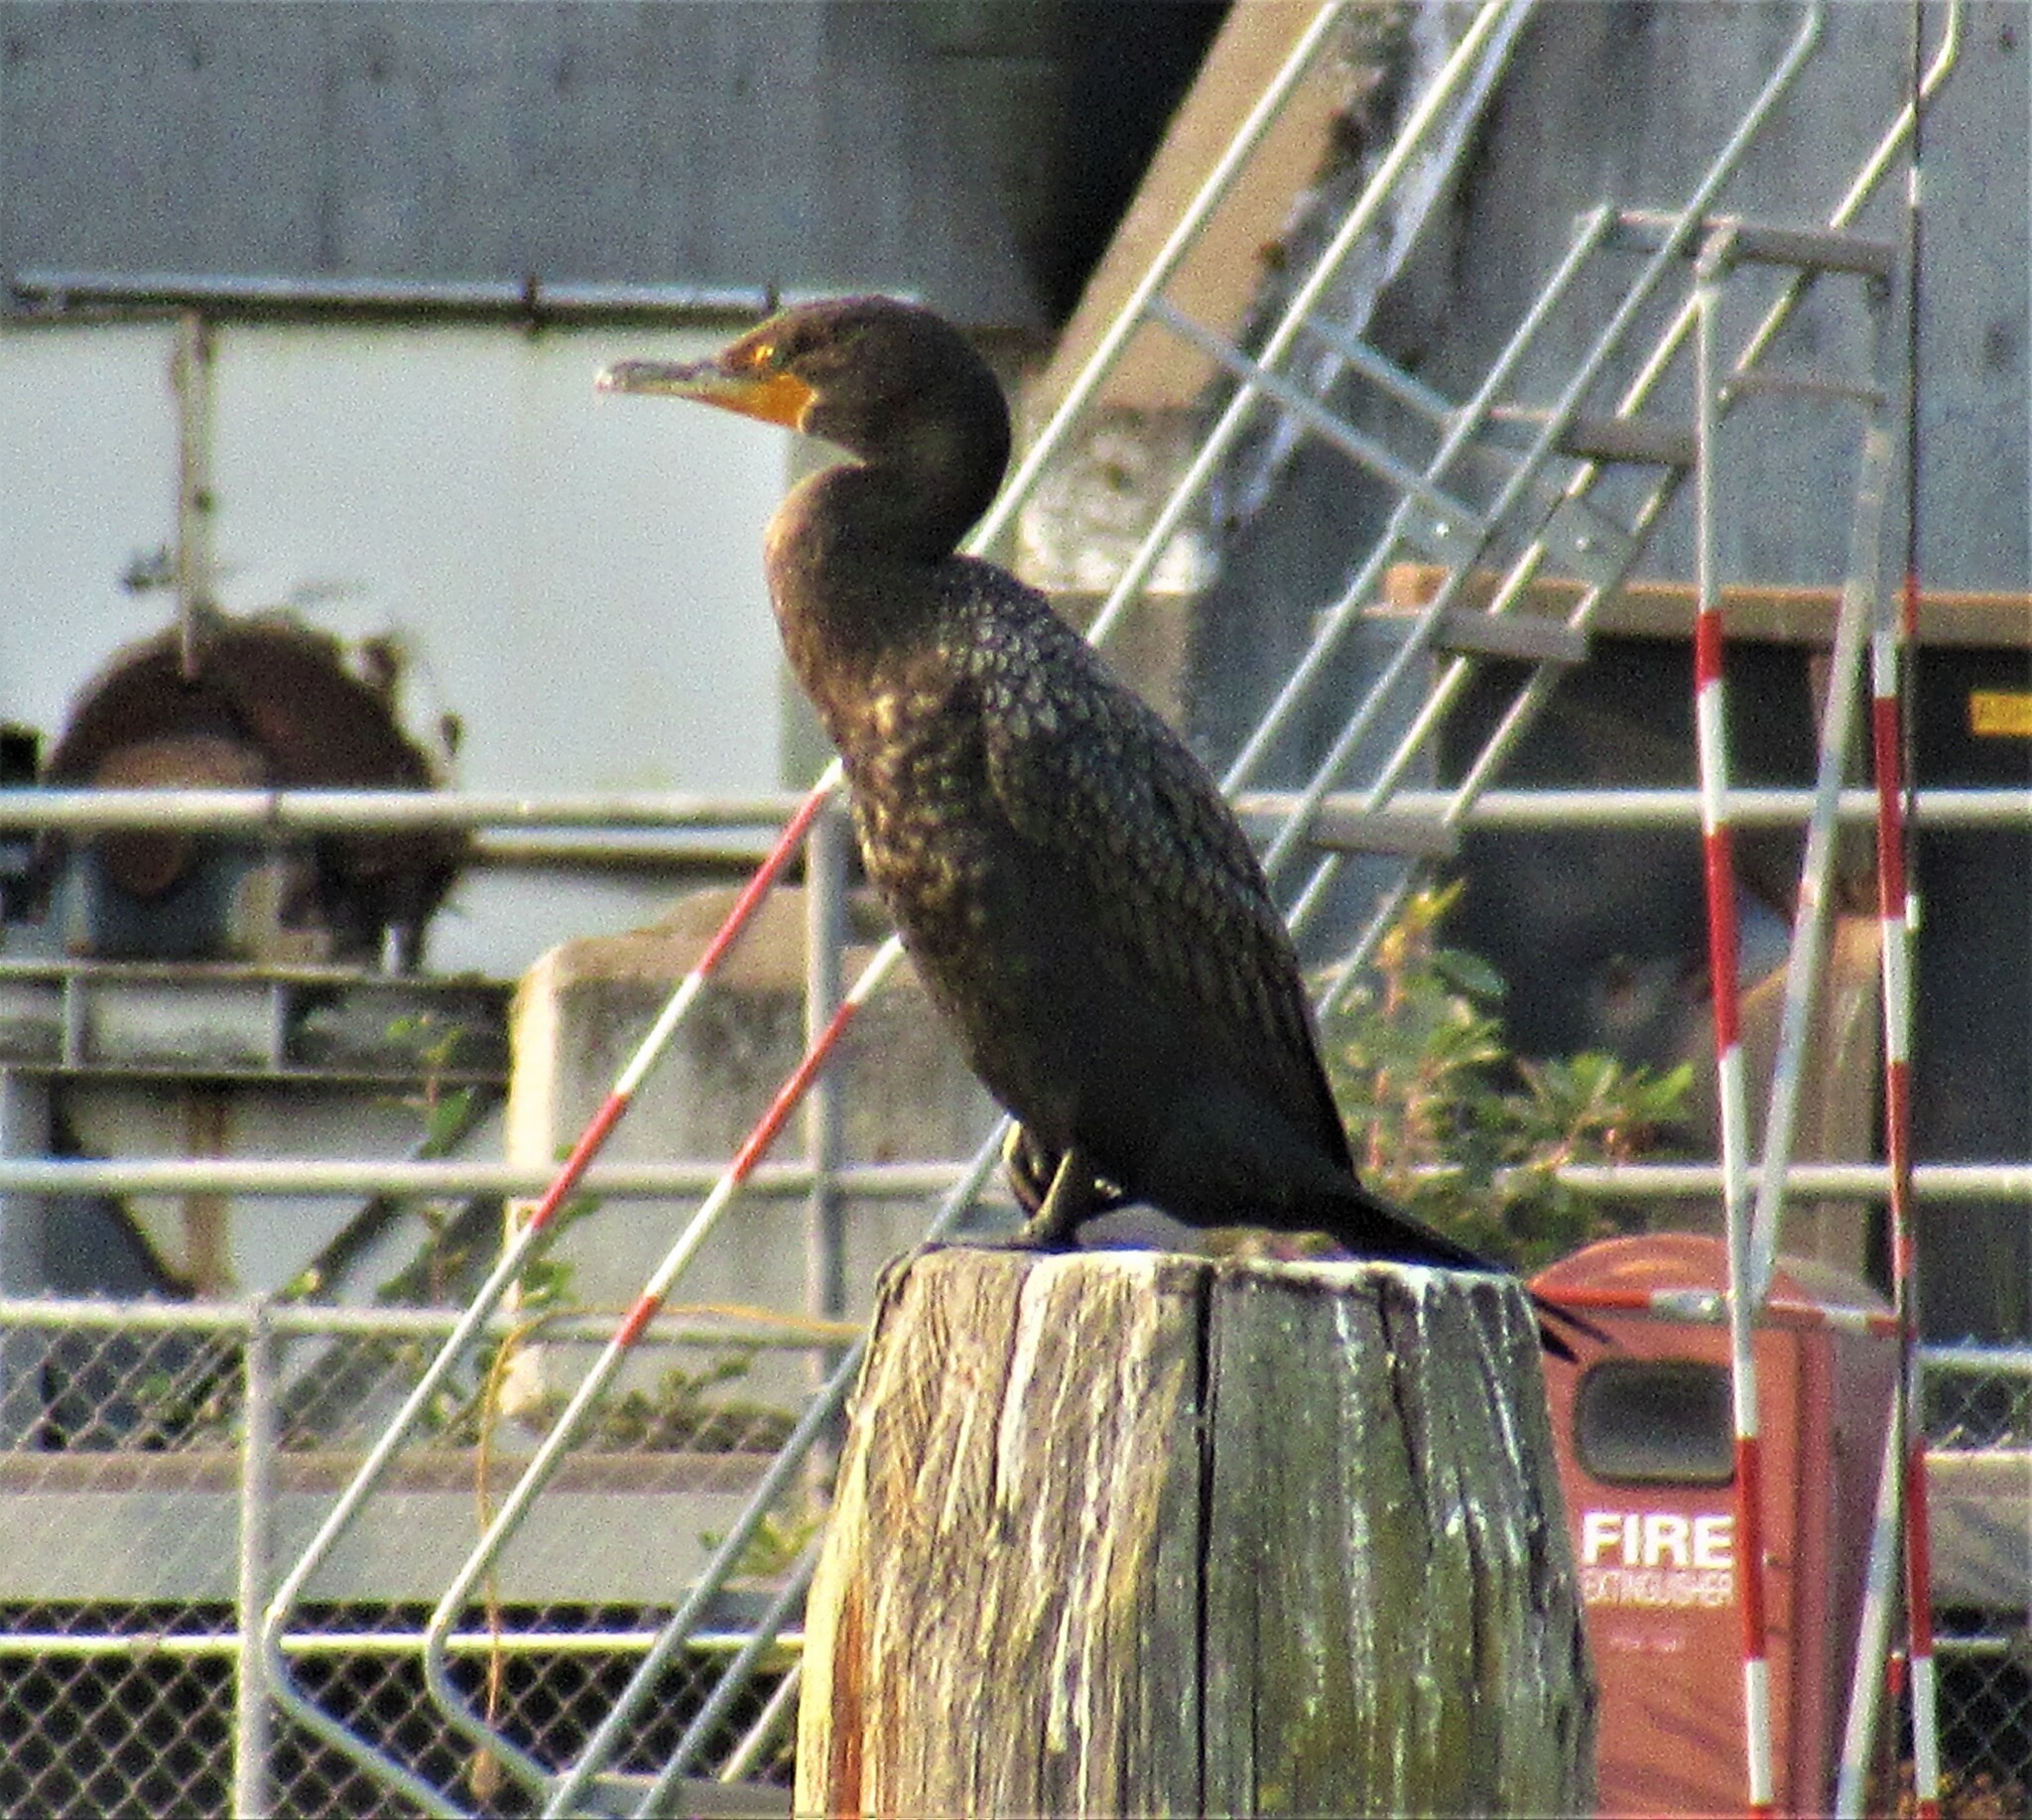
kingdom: Animalia
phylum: Chordata
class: Aves
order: Suliformes
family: Phalacrocoracidae
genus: Phalacrocorax
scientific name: Phalacrocorax auritus
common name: Double-crested cormorant
